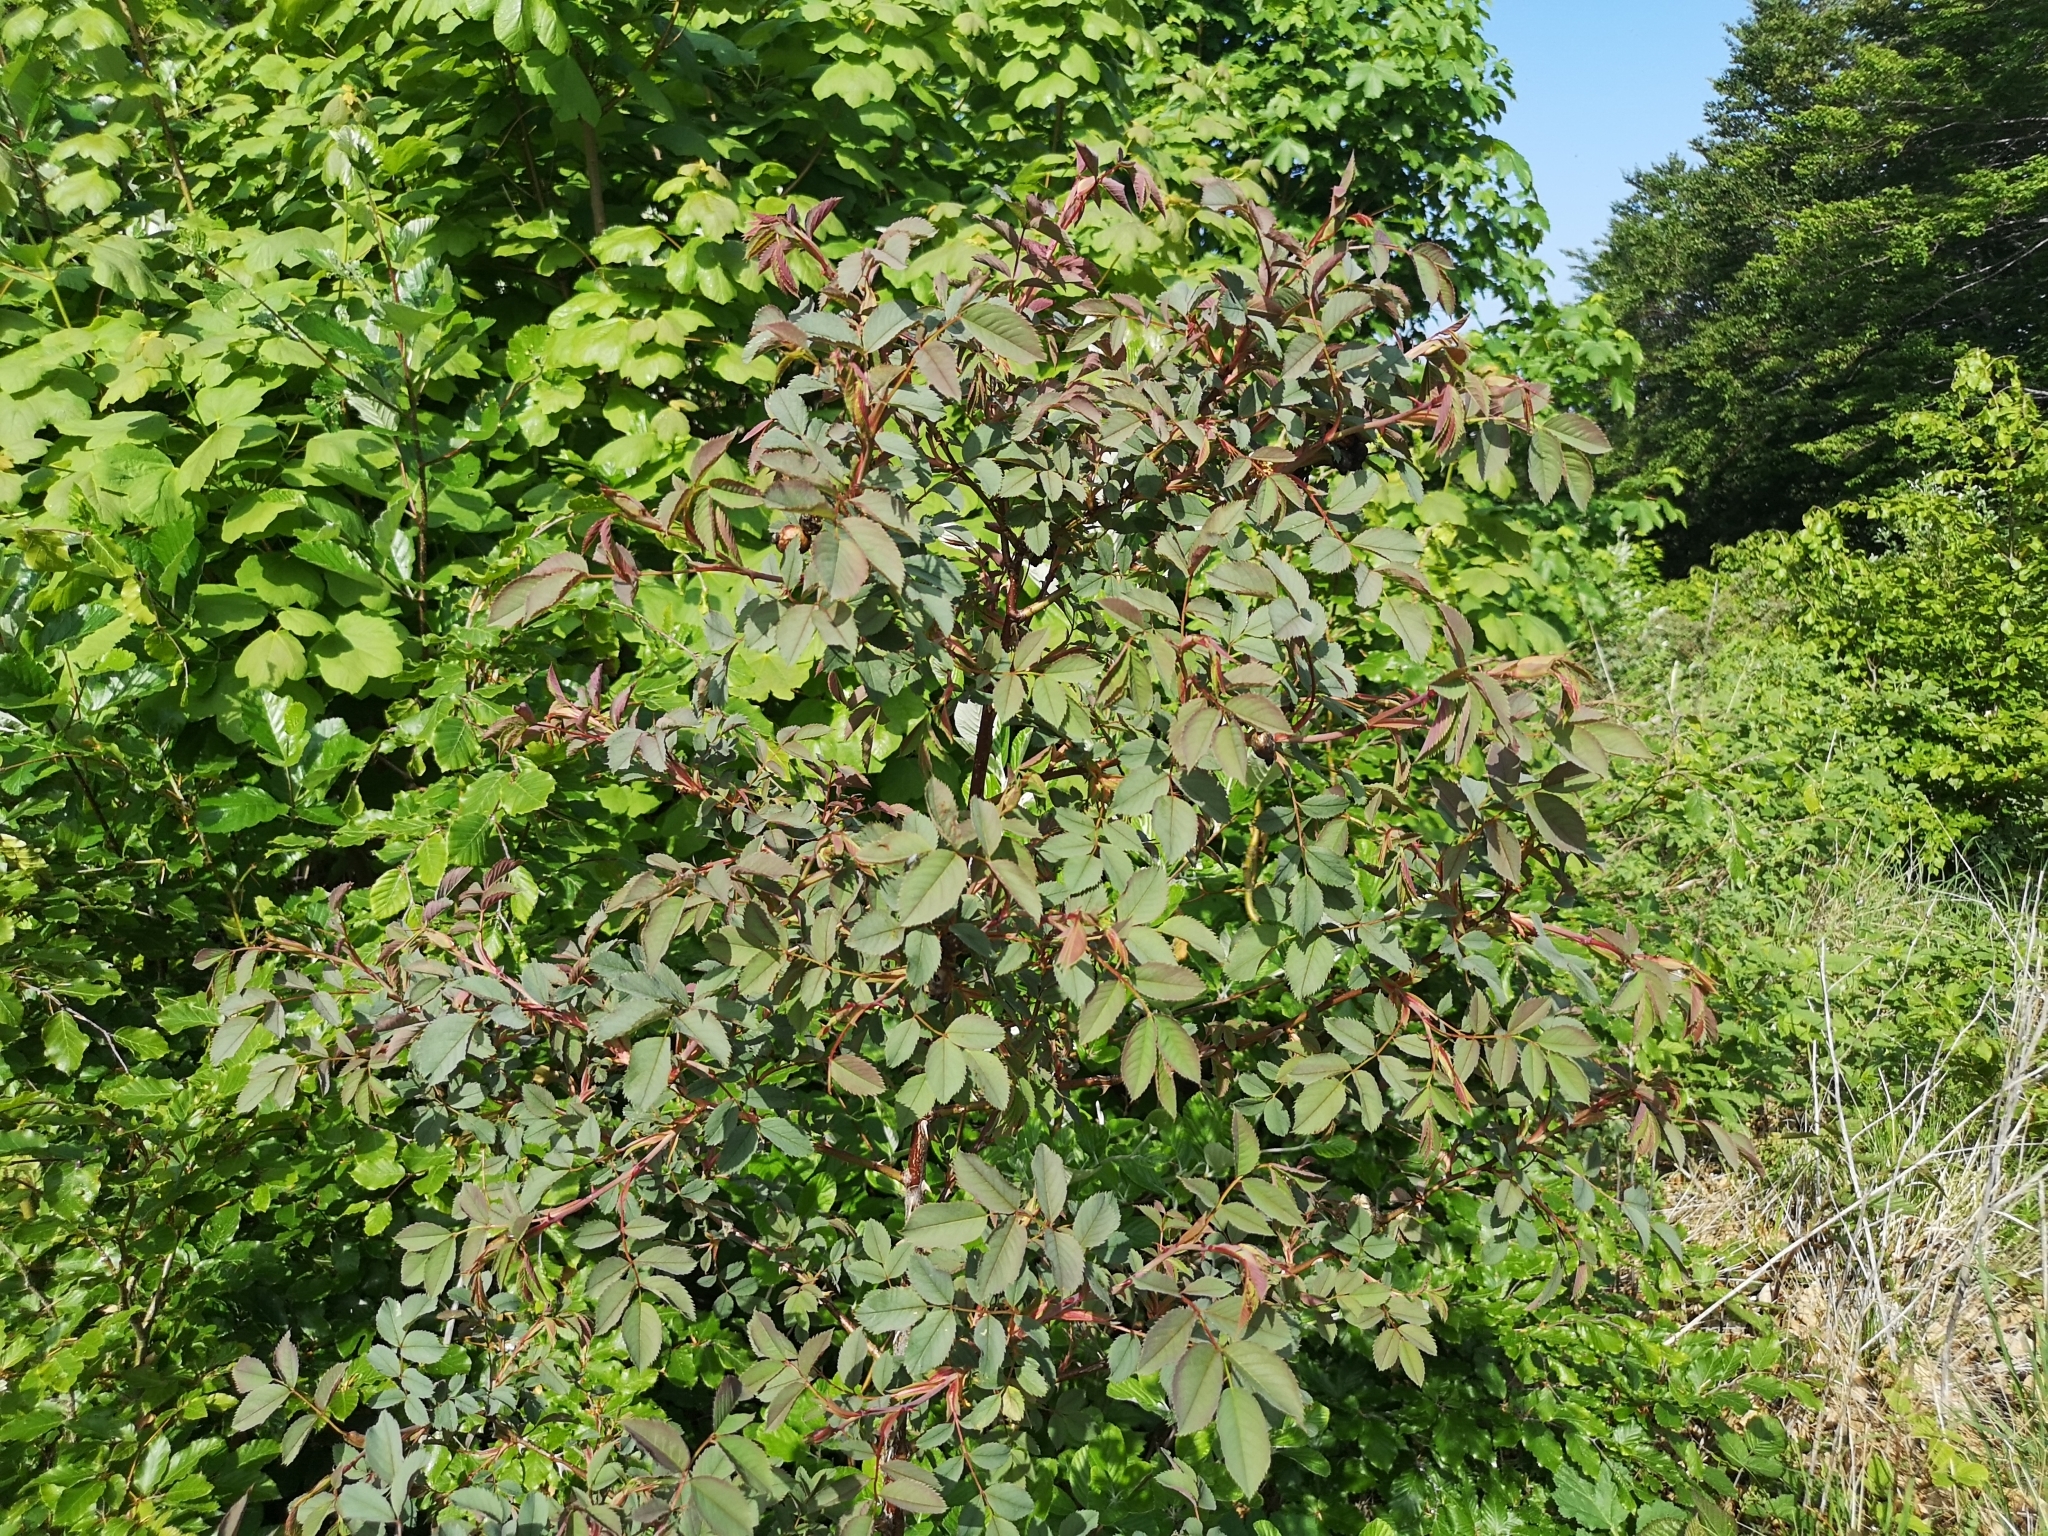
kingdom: Plantae
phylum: Tracheophyta
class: Magnoliopsida
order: Rosales
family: Rosaceae
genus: Rosa
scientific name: Rosa glauca
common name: Redleaf rose
